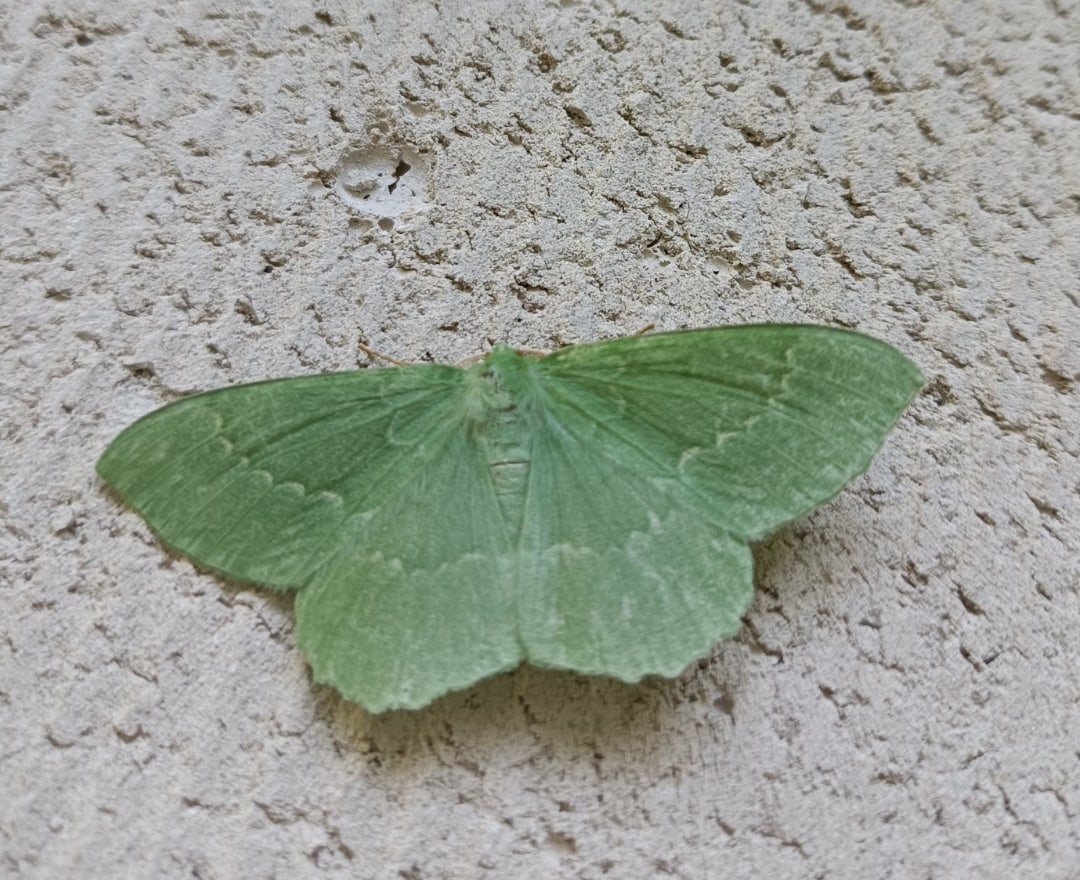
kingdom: Animalia
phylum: Arthropoda
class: Insecta
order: Lepidoptera
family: Geometridae
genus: Geometra
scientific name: Geometra papilionaria
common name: Large emerald
